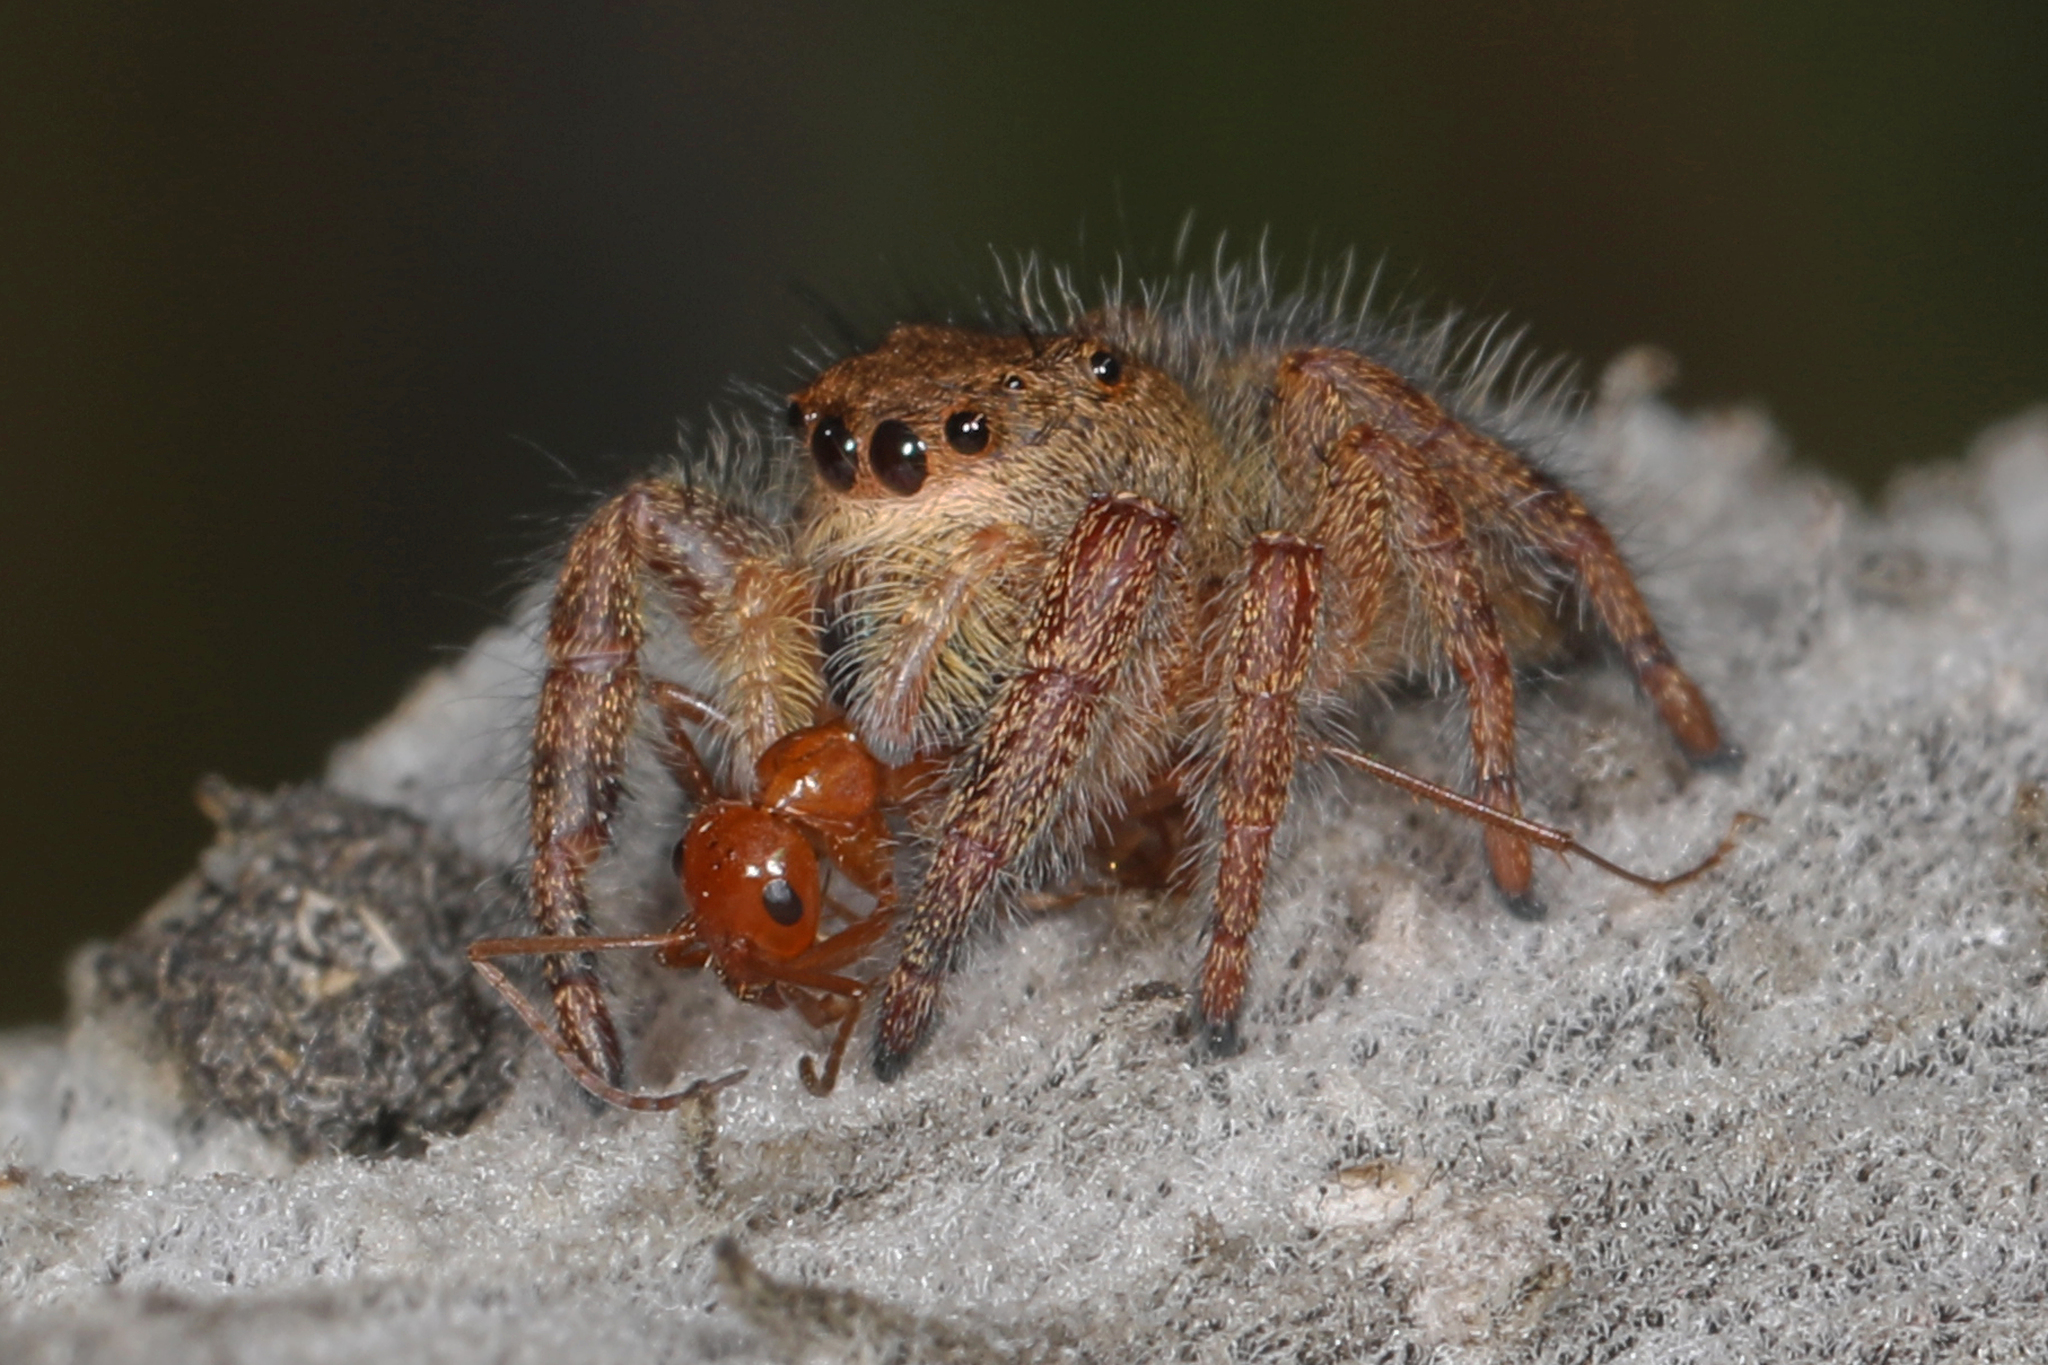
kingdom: Animalia
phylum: Arthropoda
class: Arachnida
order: Araneae
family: Salticidae
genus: Phidippus
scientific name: Phidippus princeps
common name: Grayish jumping spider
